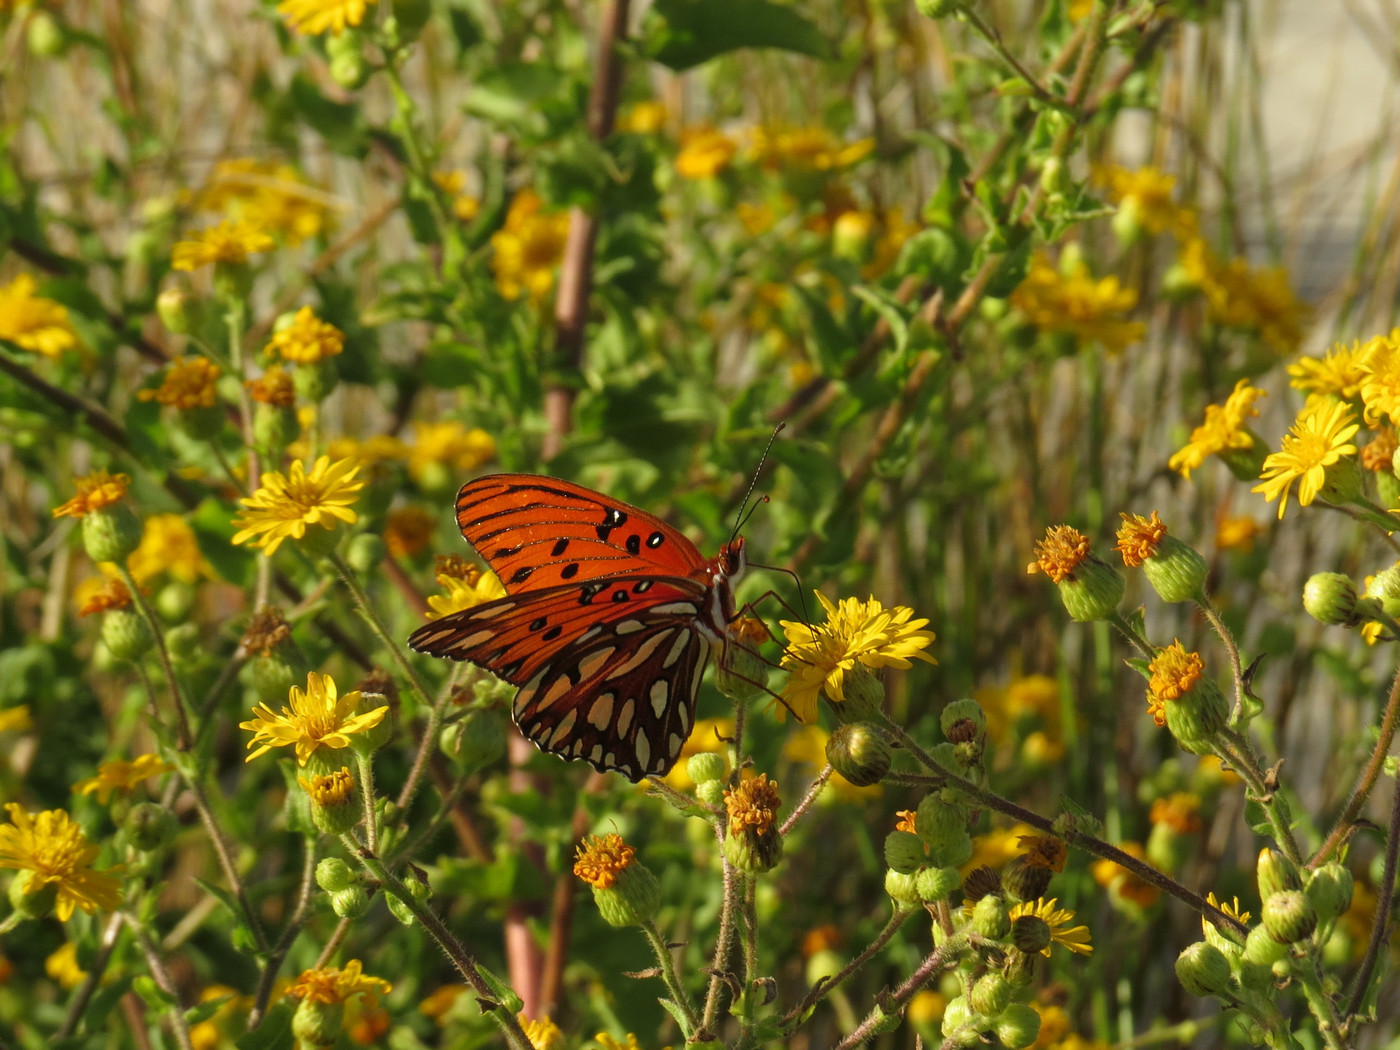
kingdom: Animalia
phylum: Arthropoda
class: Insecta
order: Lepidoptera
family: Nymphalidae
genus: Dione
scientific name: Dione vanillae
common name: Gulf fritillary
